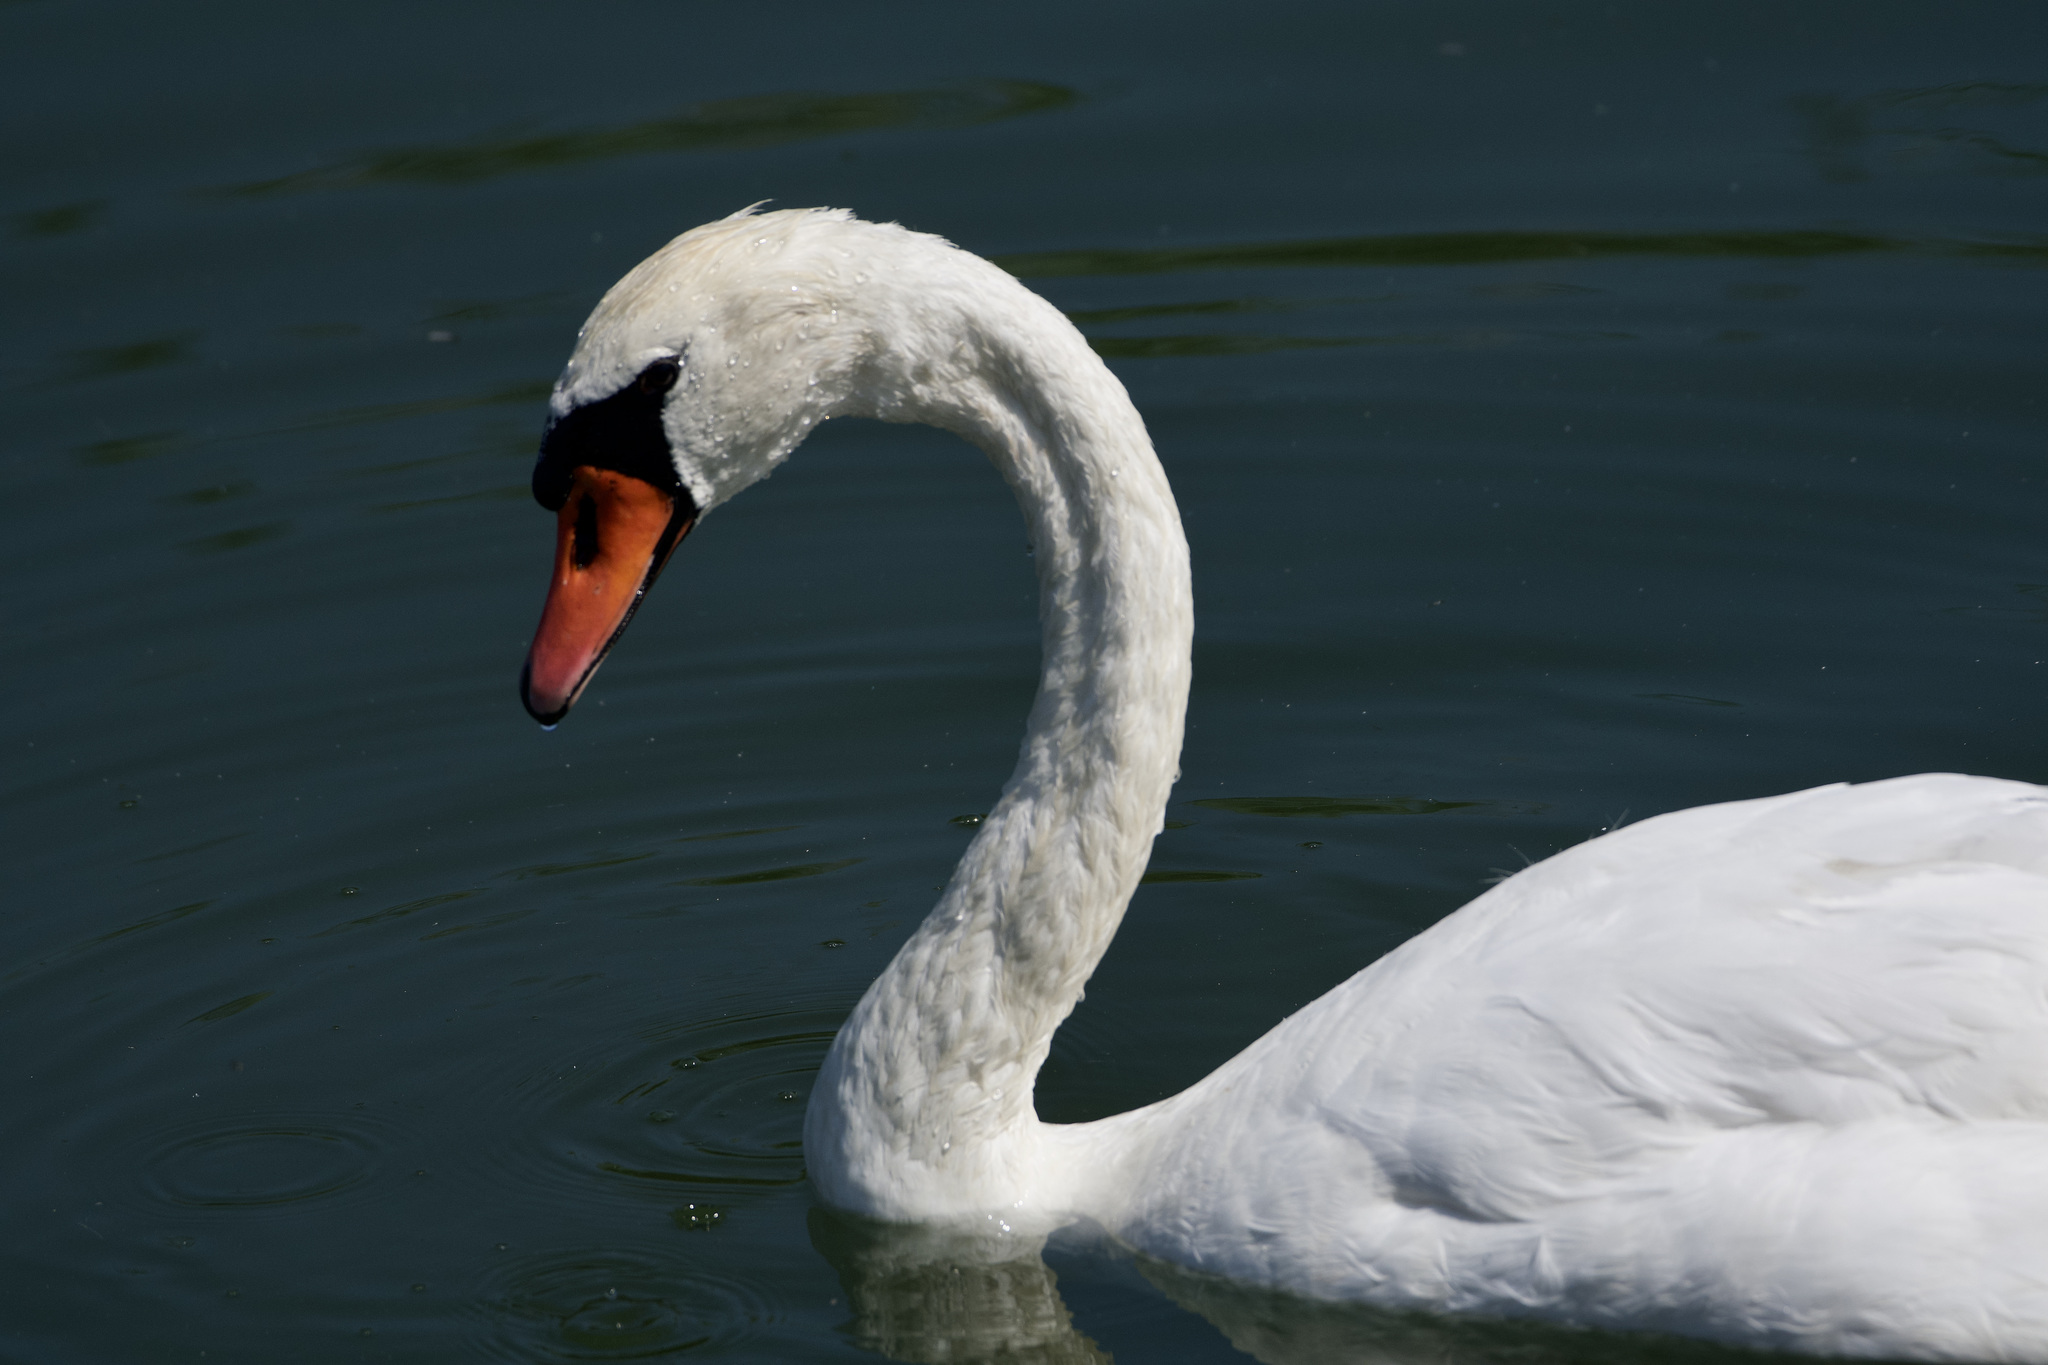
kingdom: Animalia
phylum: Chordata
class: Aves
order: Anseriformes
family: Anatidae
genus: Cygnus
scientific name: Cygnus olor
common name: Mute swan
